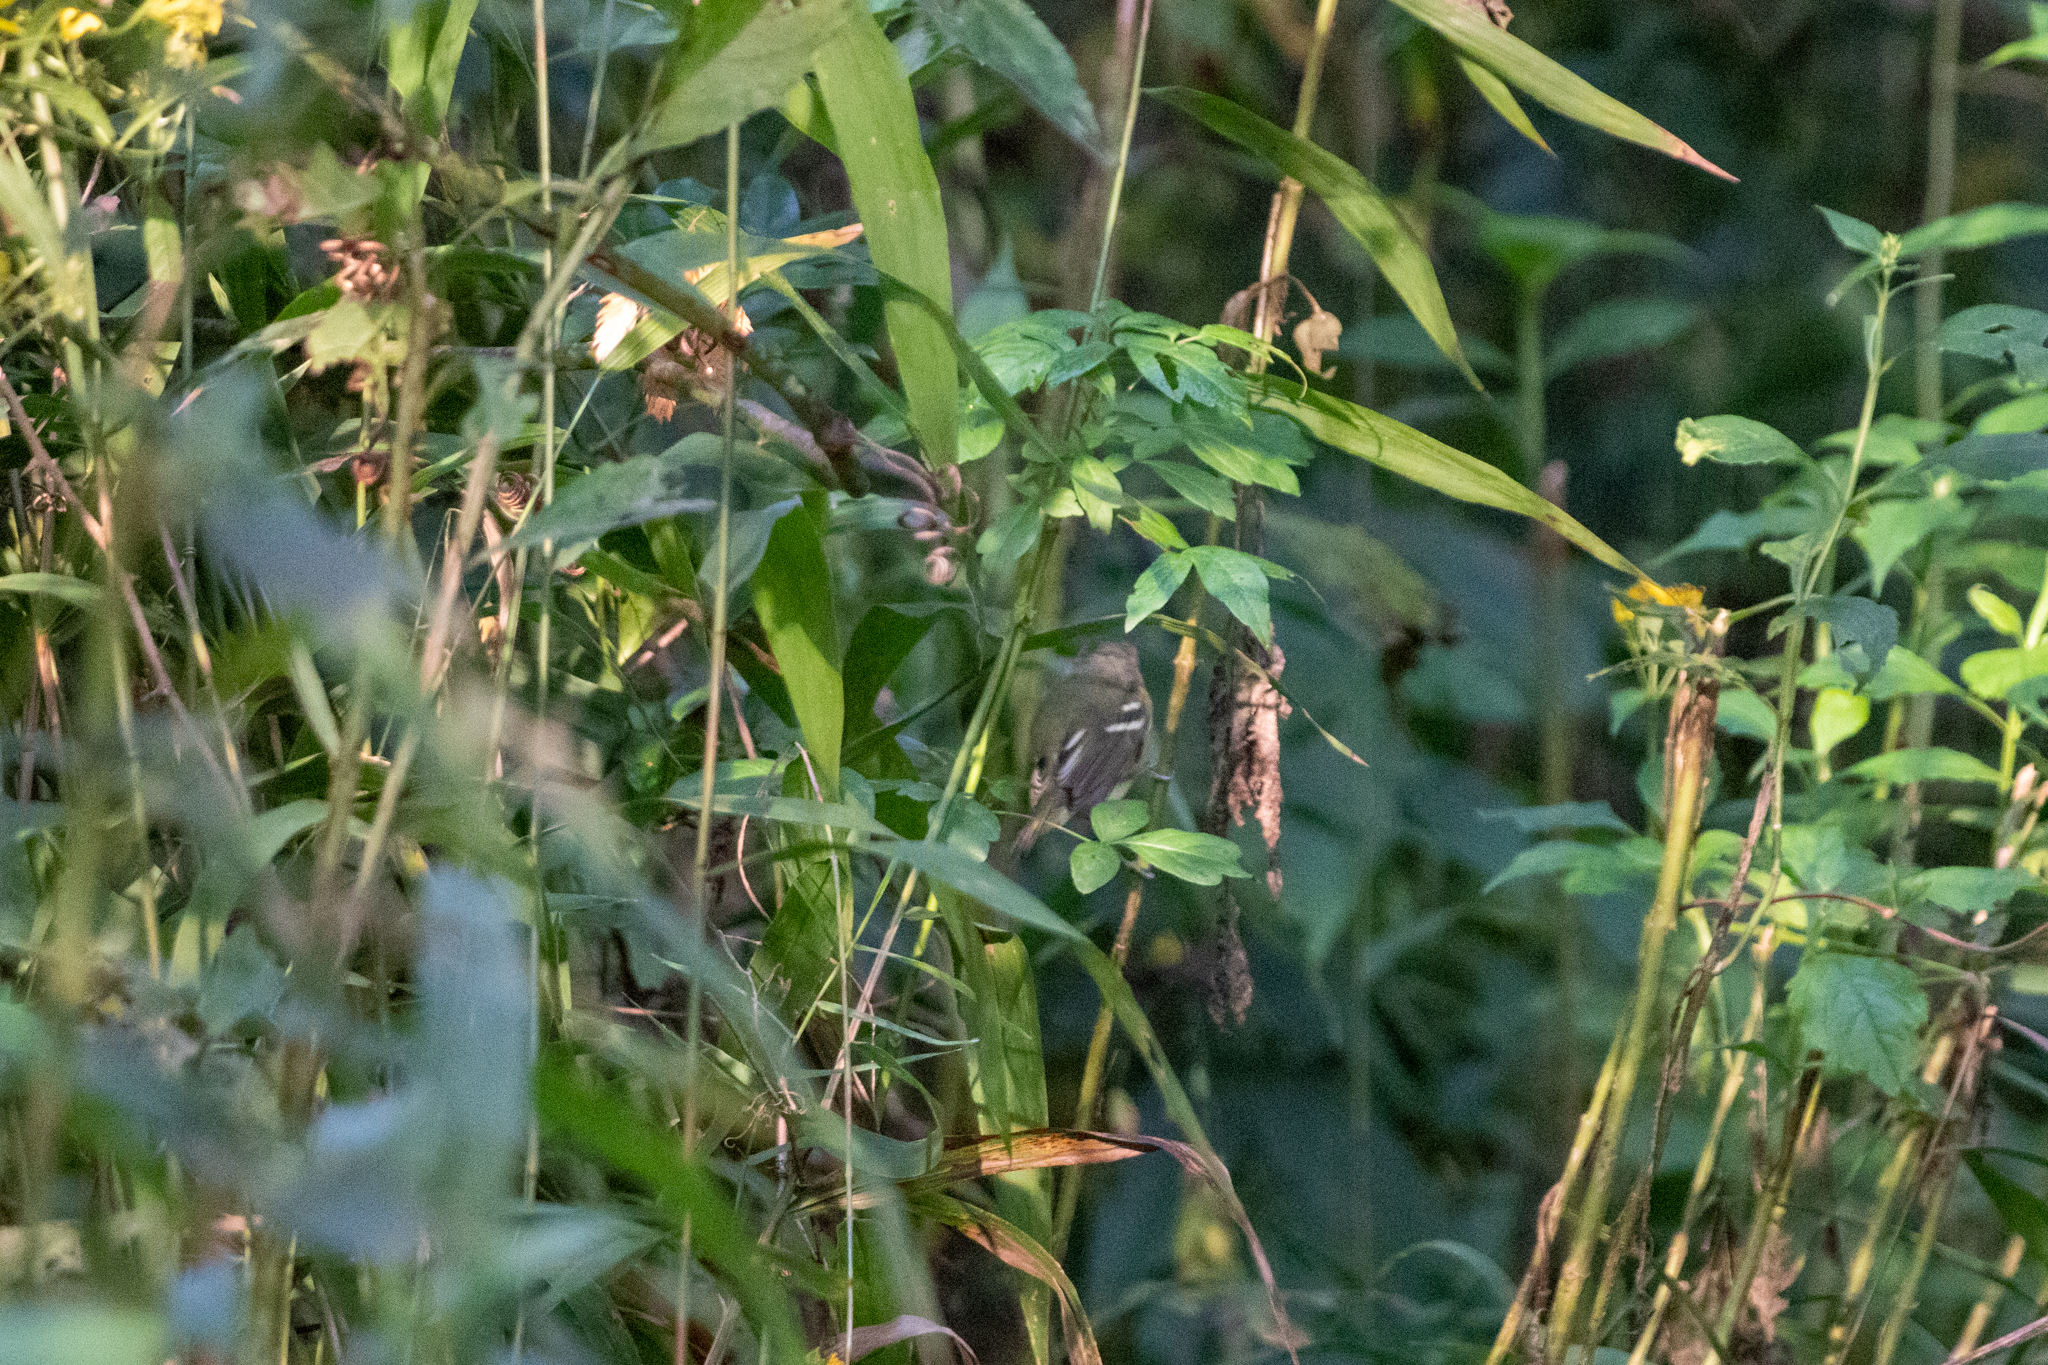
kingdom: Animalia
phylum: Chordata
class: Aves
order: Passeriformes
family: Vireonidae
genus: Vireo
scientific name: Vireo griseus
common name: White-eyed vireo
